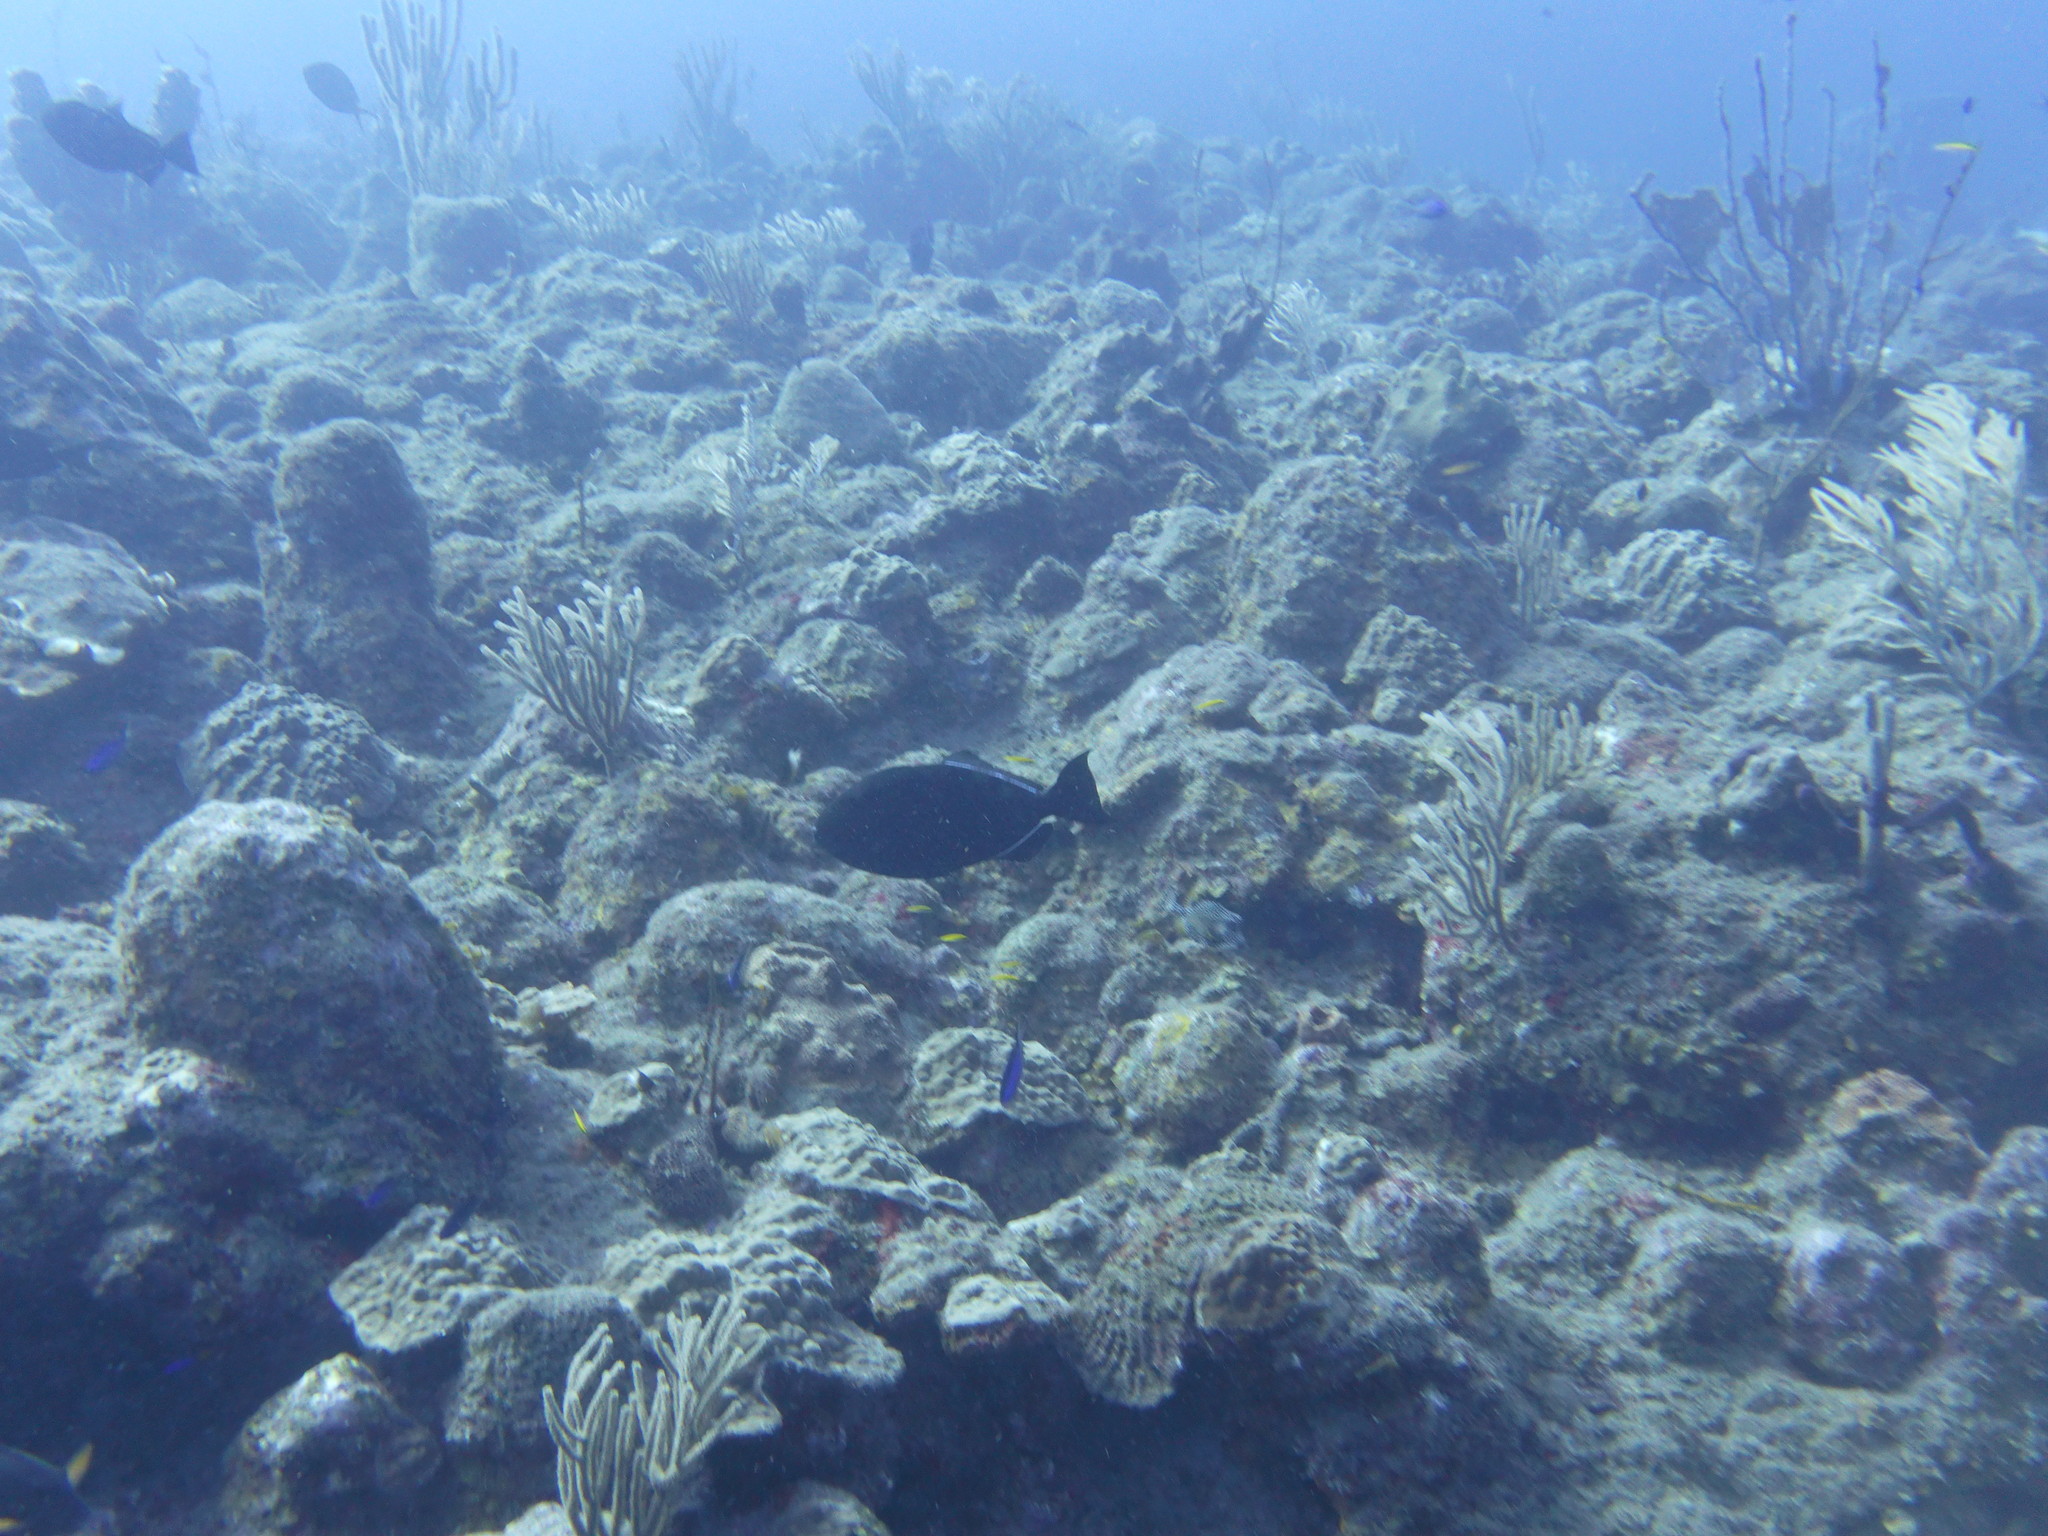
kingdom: Animalia
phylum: Chordata
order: Tetraodontiformes
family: Balistidae
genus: Melichthys
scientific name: Melichthys niger
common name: Black durgon
